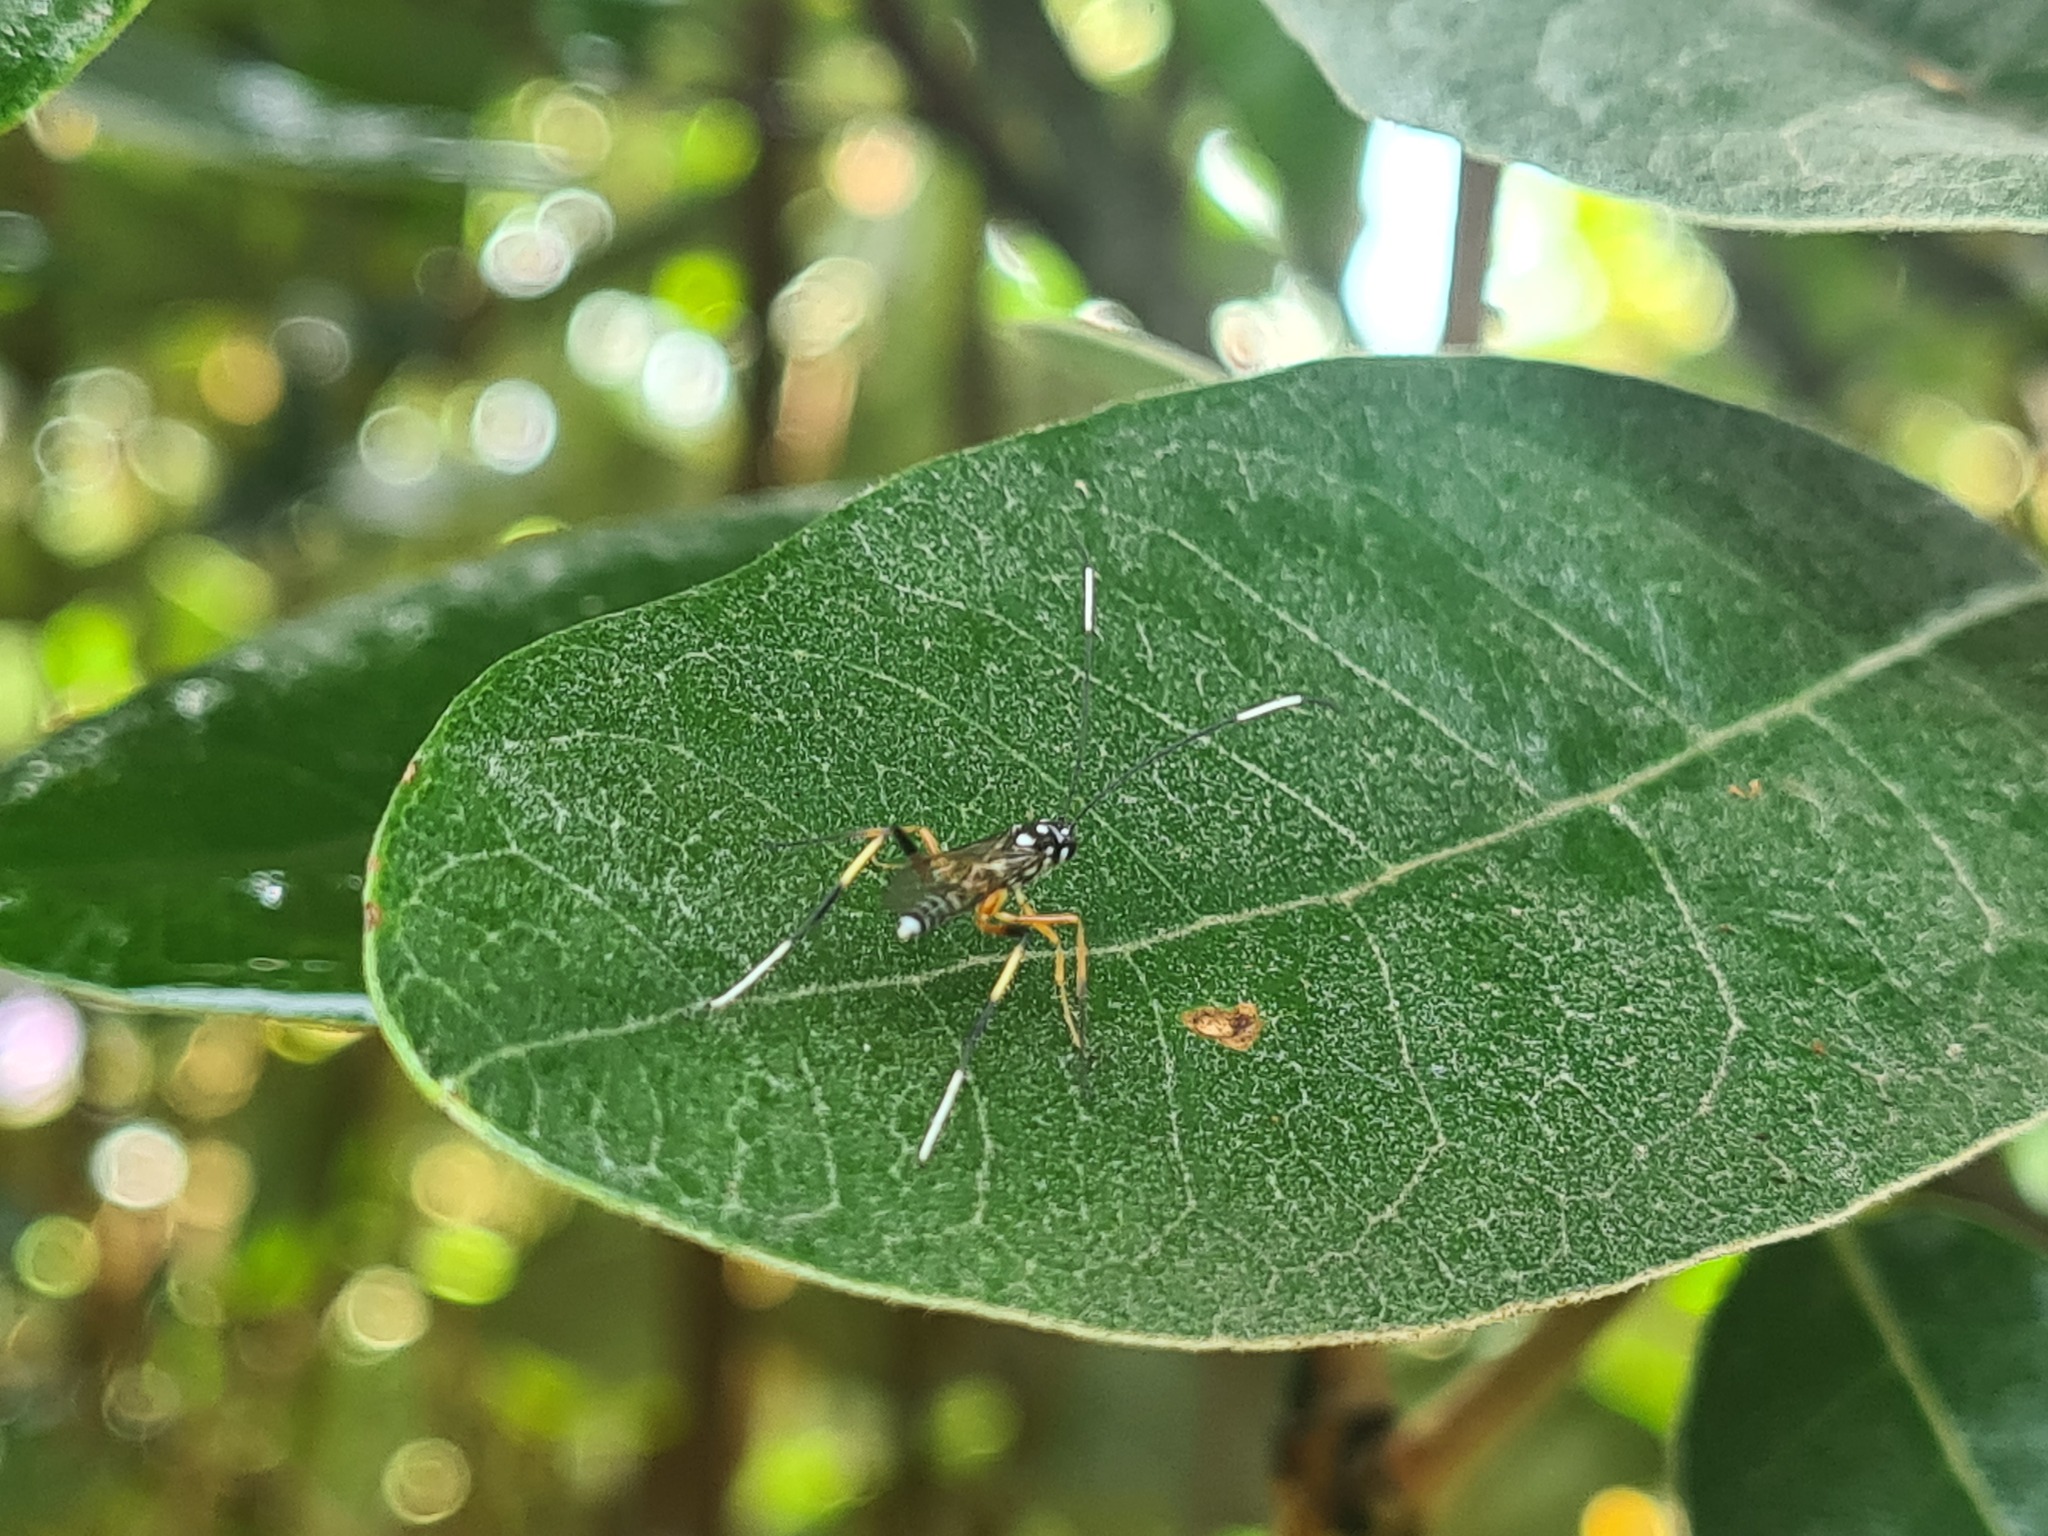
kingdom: Animalia
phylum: Arthropoda
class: Insecta
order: Hymenoptera
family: Ichneumonidae
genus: Xanthocryptus
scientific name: Xanthocryptus novozealandicus
